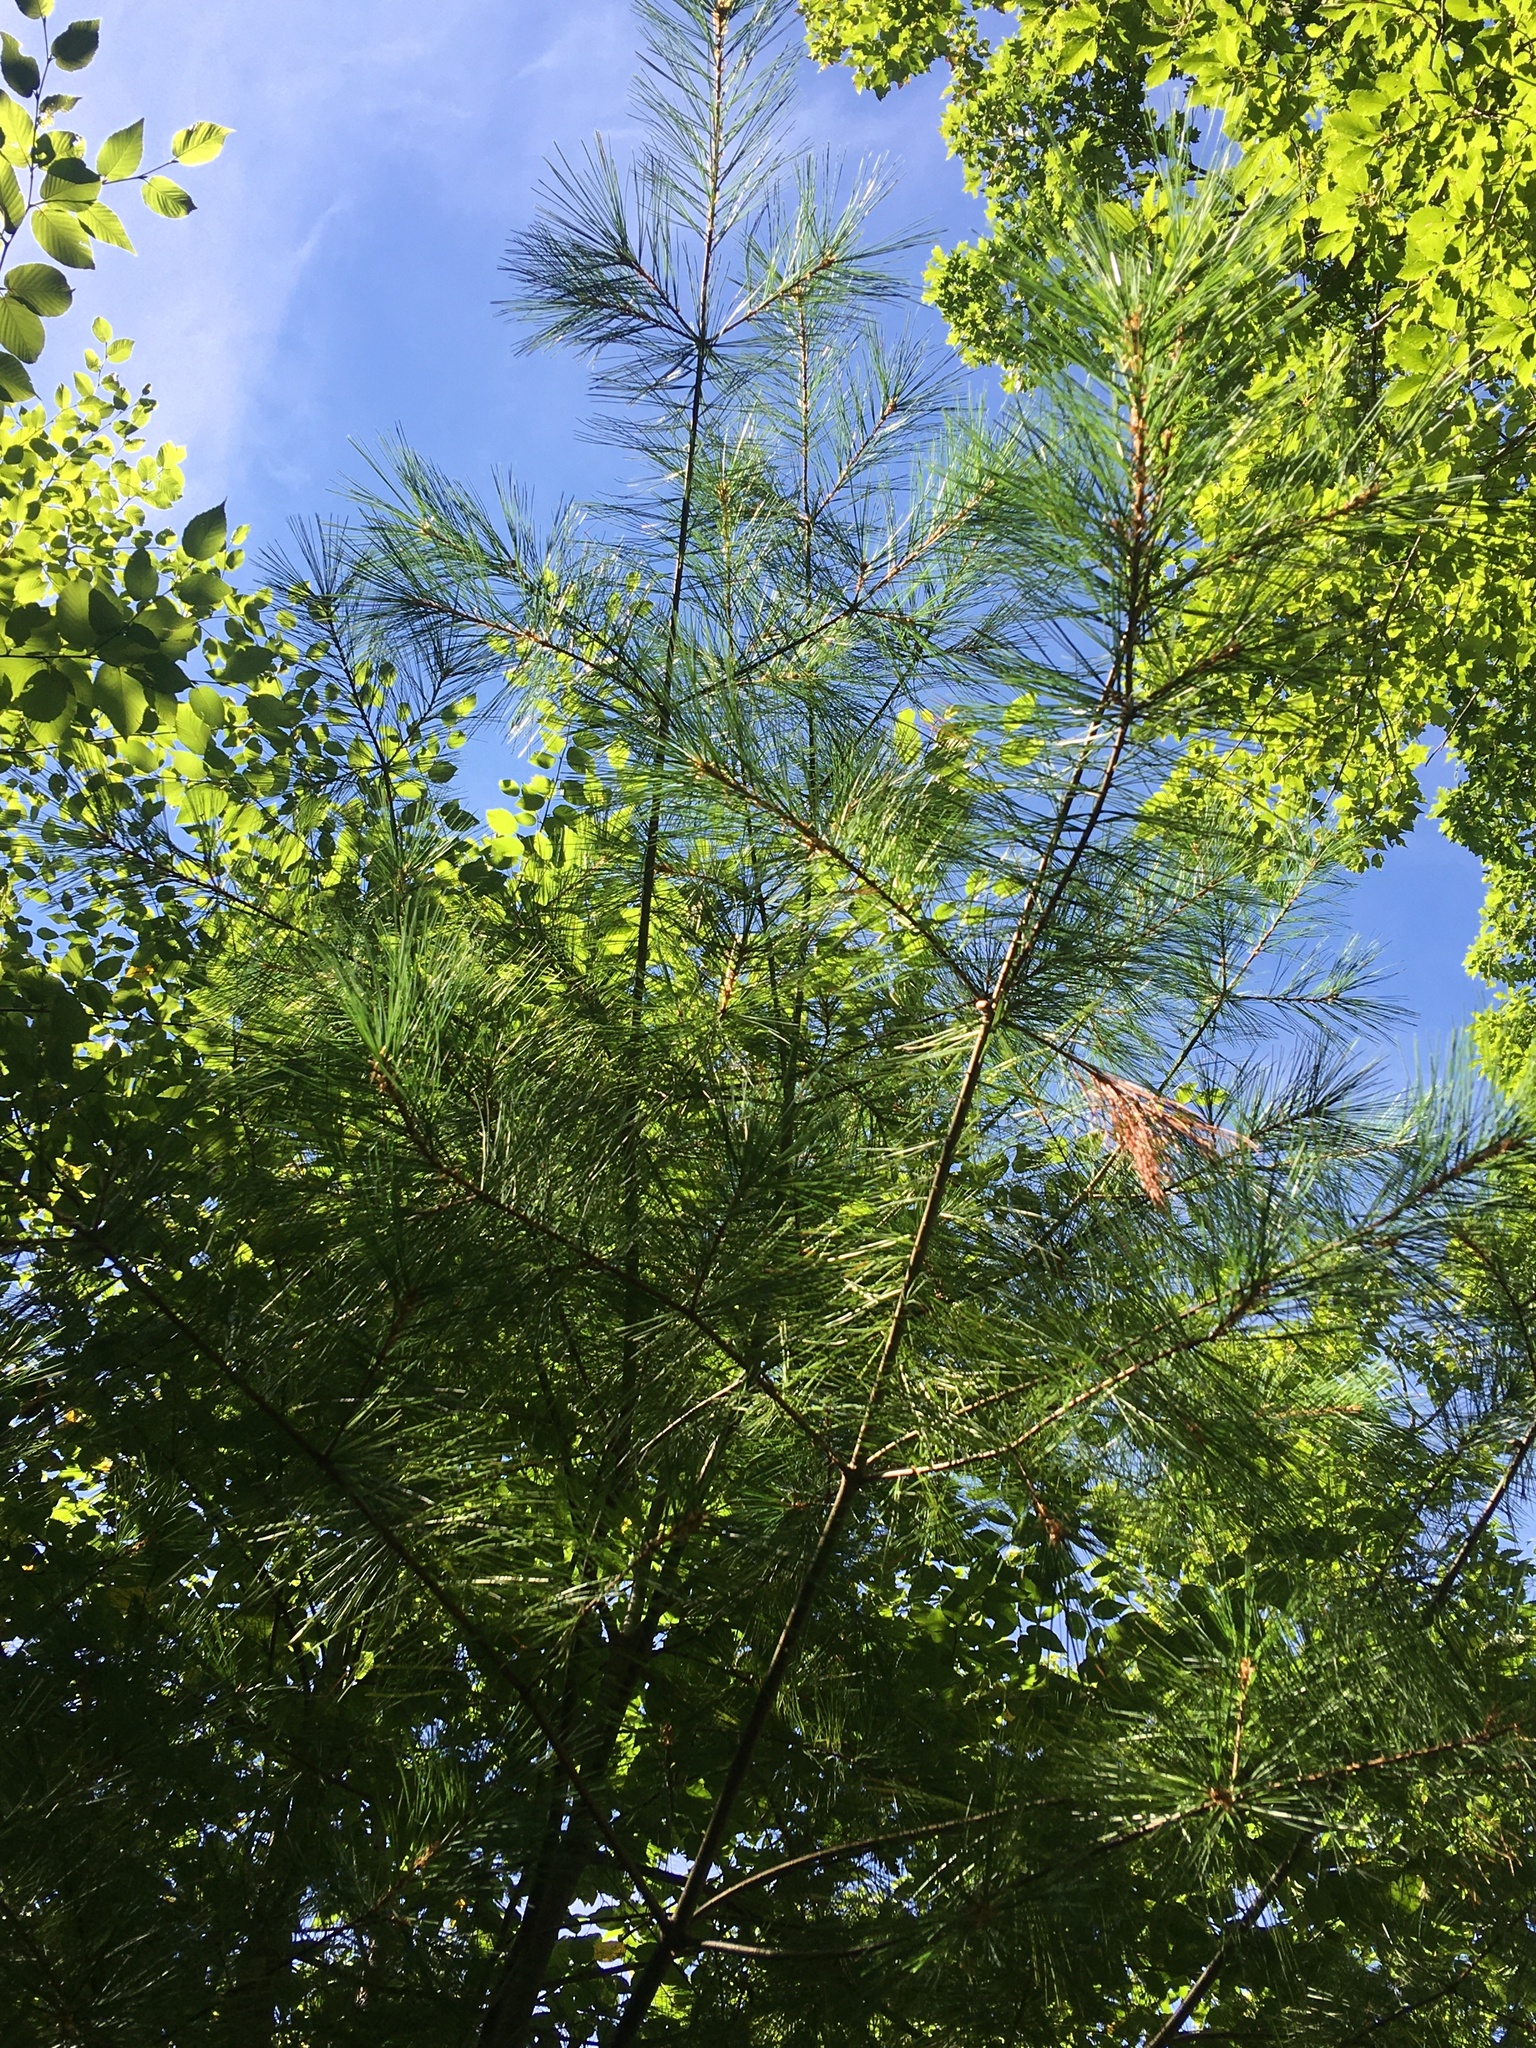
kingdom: Plantae
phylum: Tracheophyta
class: Pinopsida
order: Pinales
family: Pinaceae
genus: Pinus
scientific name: Pinus strobus
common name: Weymouth pine
